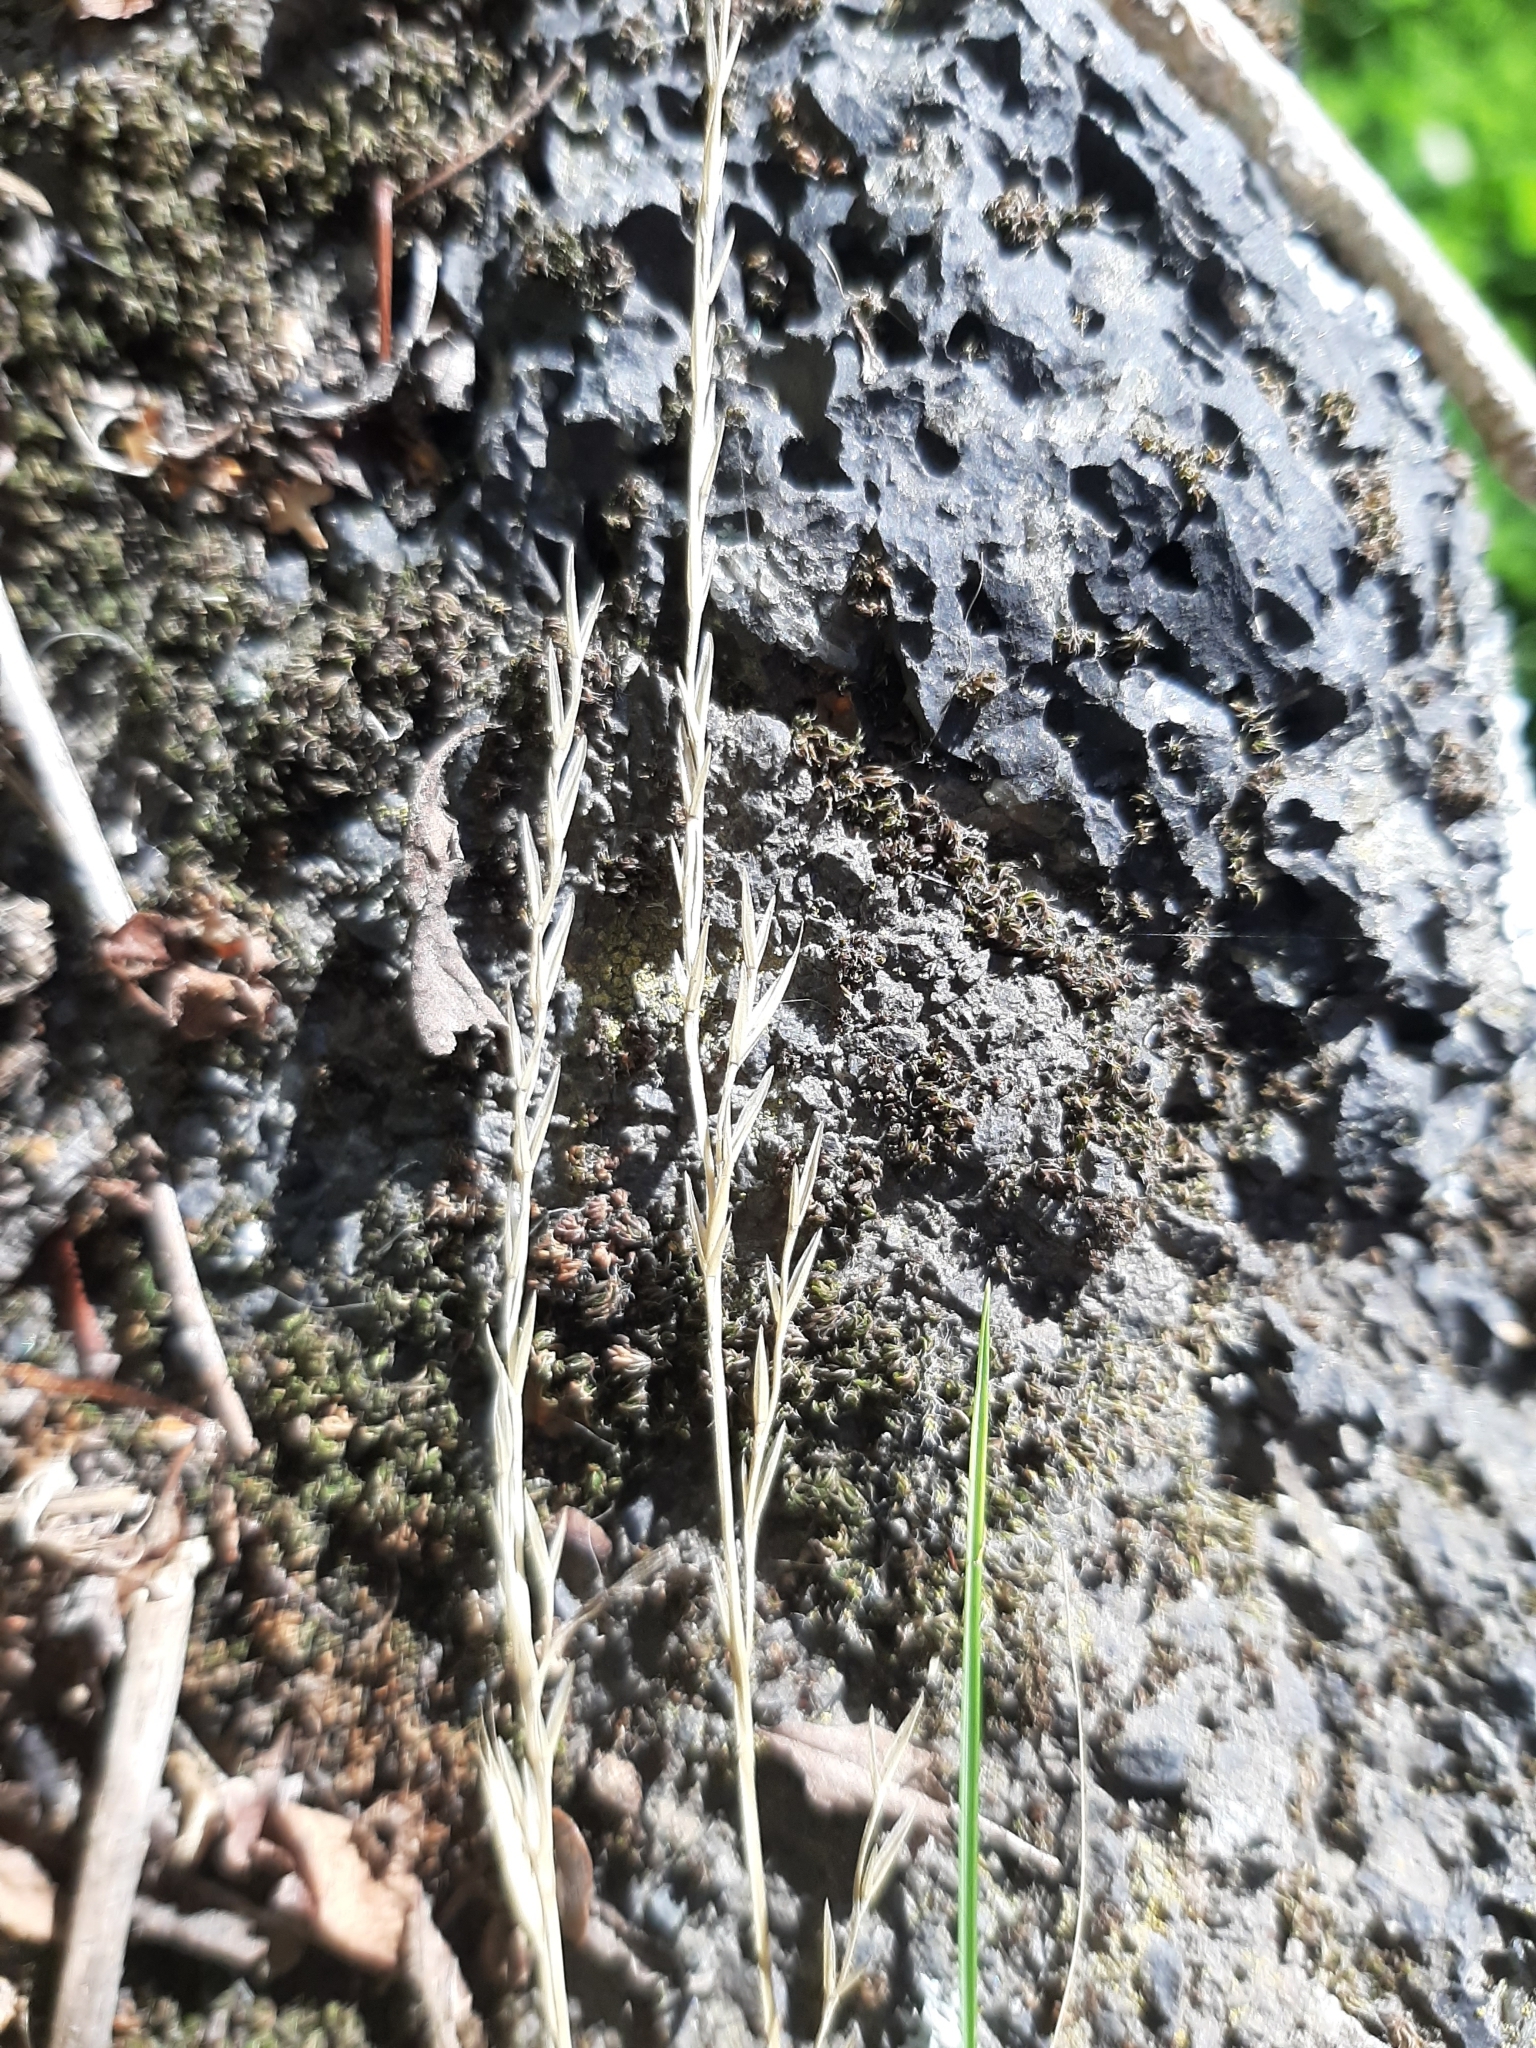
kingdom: Plantae
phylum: Tracheophyta
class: Liliopsida
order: Poales
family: Poaceae
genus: Festuca
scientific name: Festuca rubra
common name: Red fescue
